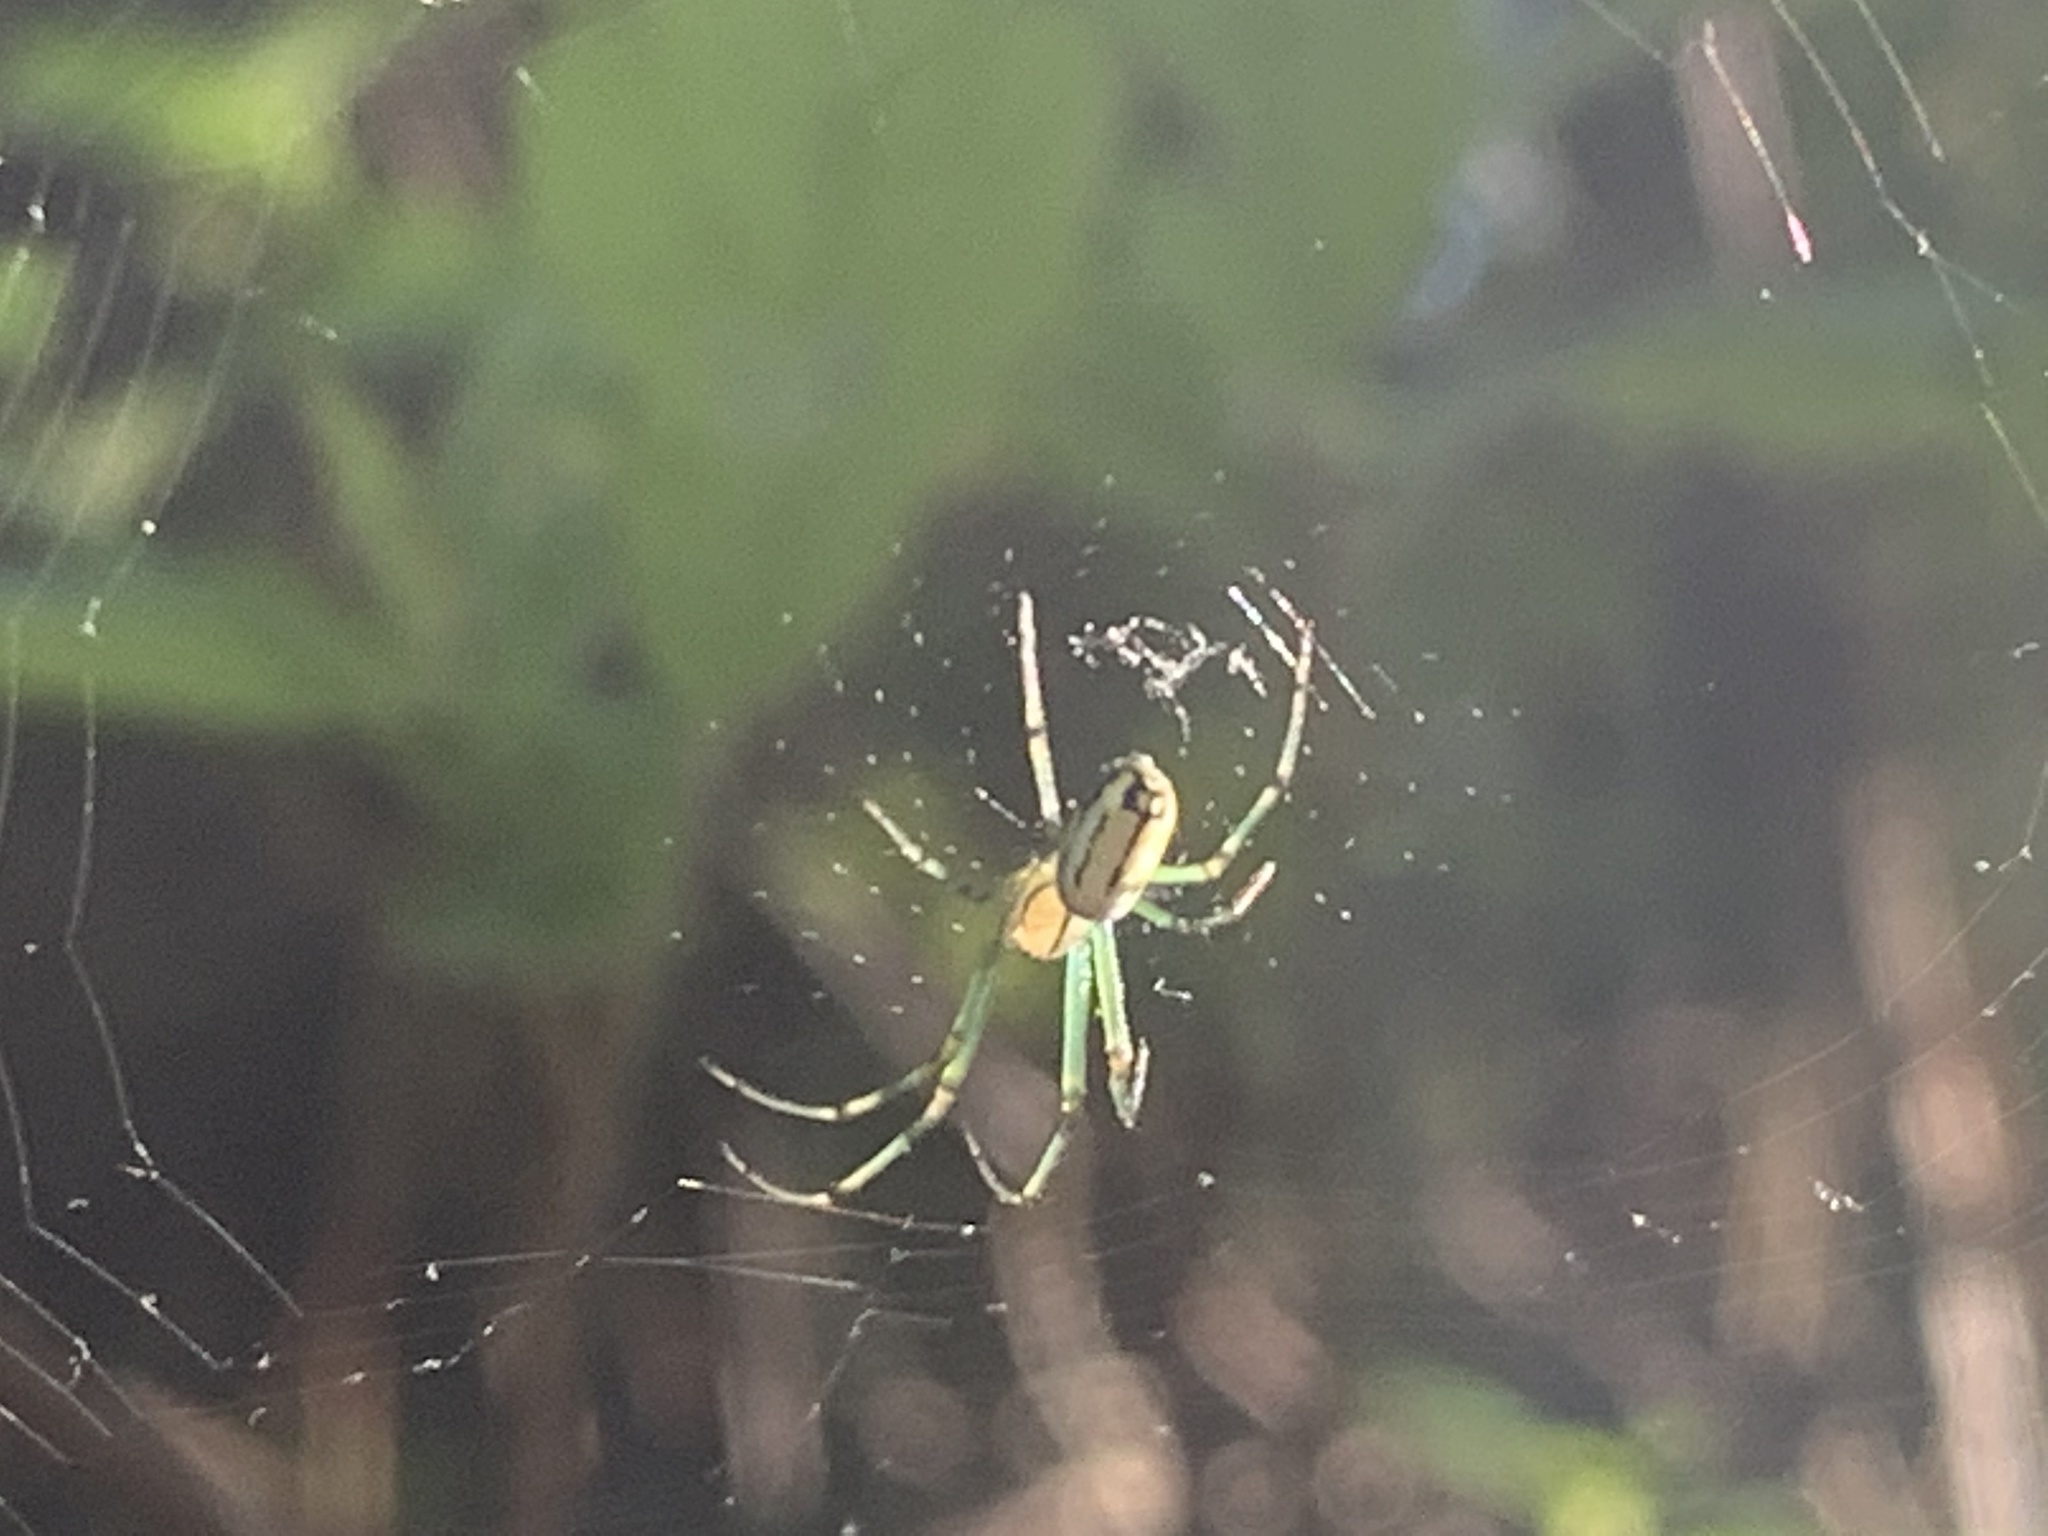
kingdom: Animalia
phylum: Arthropoda
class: Arachnida
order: Araneae
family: Tetragnathidae
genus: Leucauge
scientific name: Leucauge venusta
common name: Longjawed orb weavers
